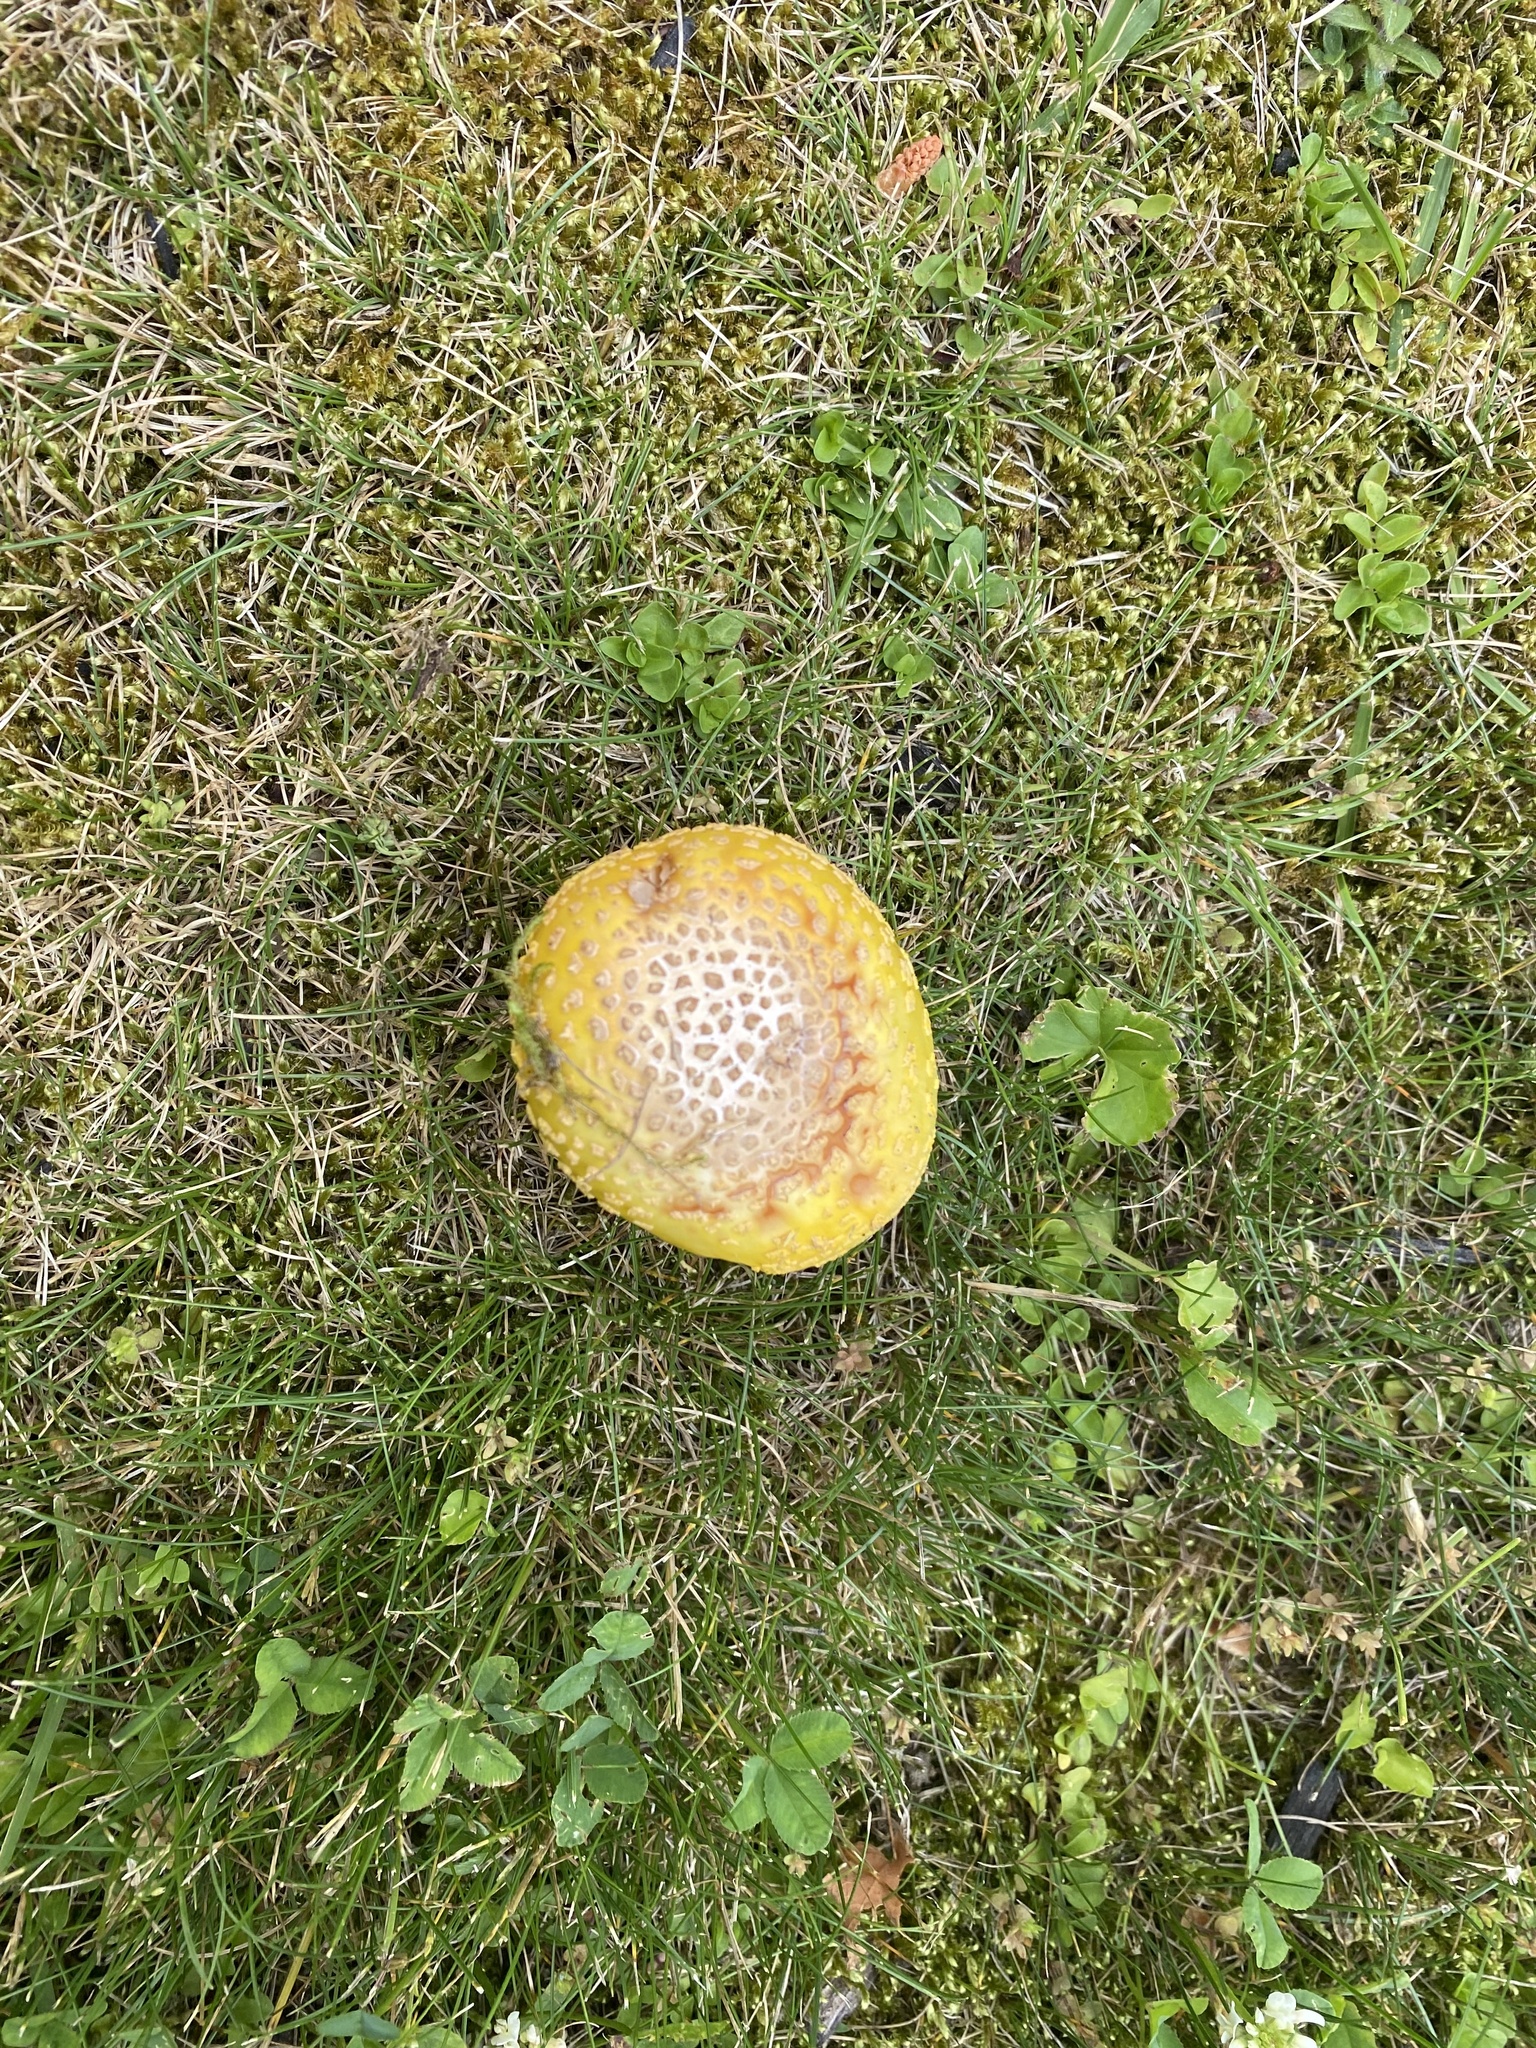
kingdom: Fungi
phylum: Basidiomycota
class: Agaricomycetes
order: Agaricales
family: Amanitaceae
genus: Amanita
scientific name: Amanita flavorubens
